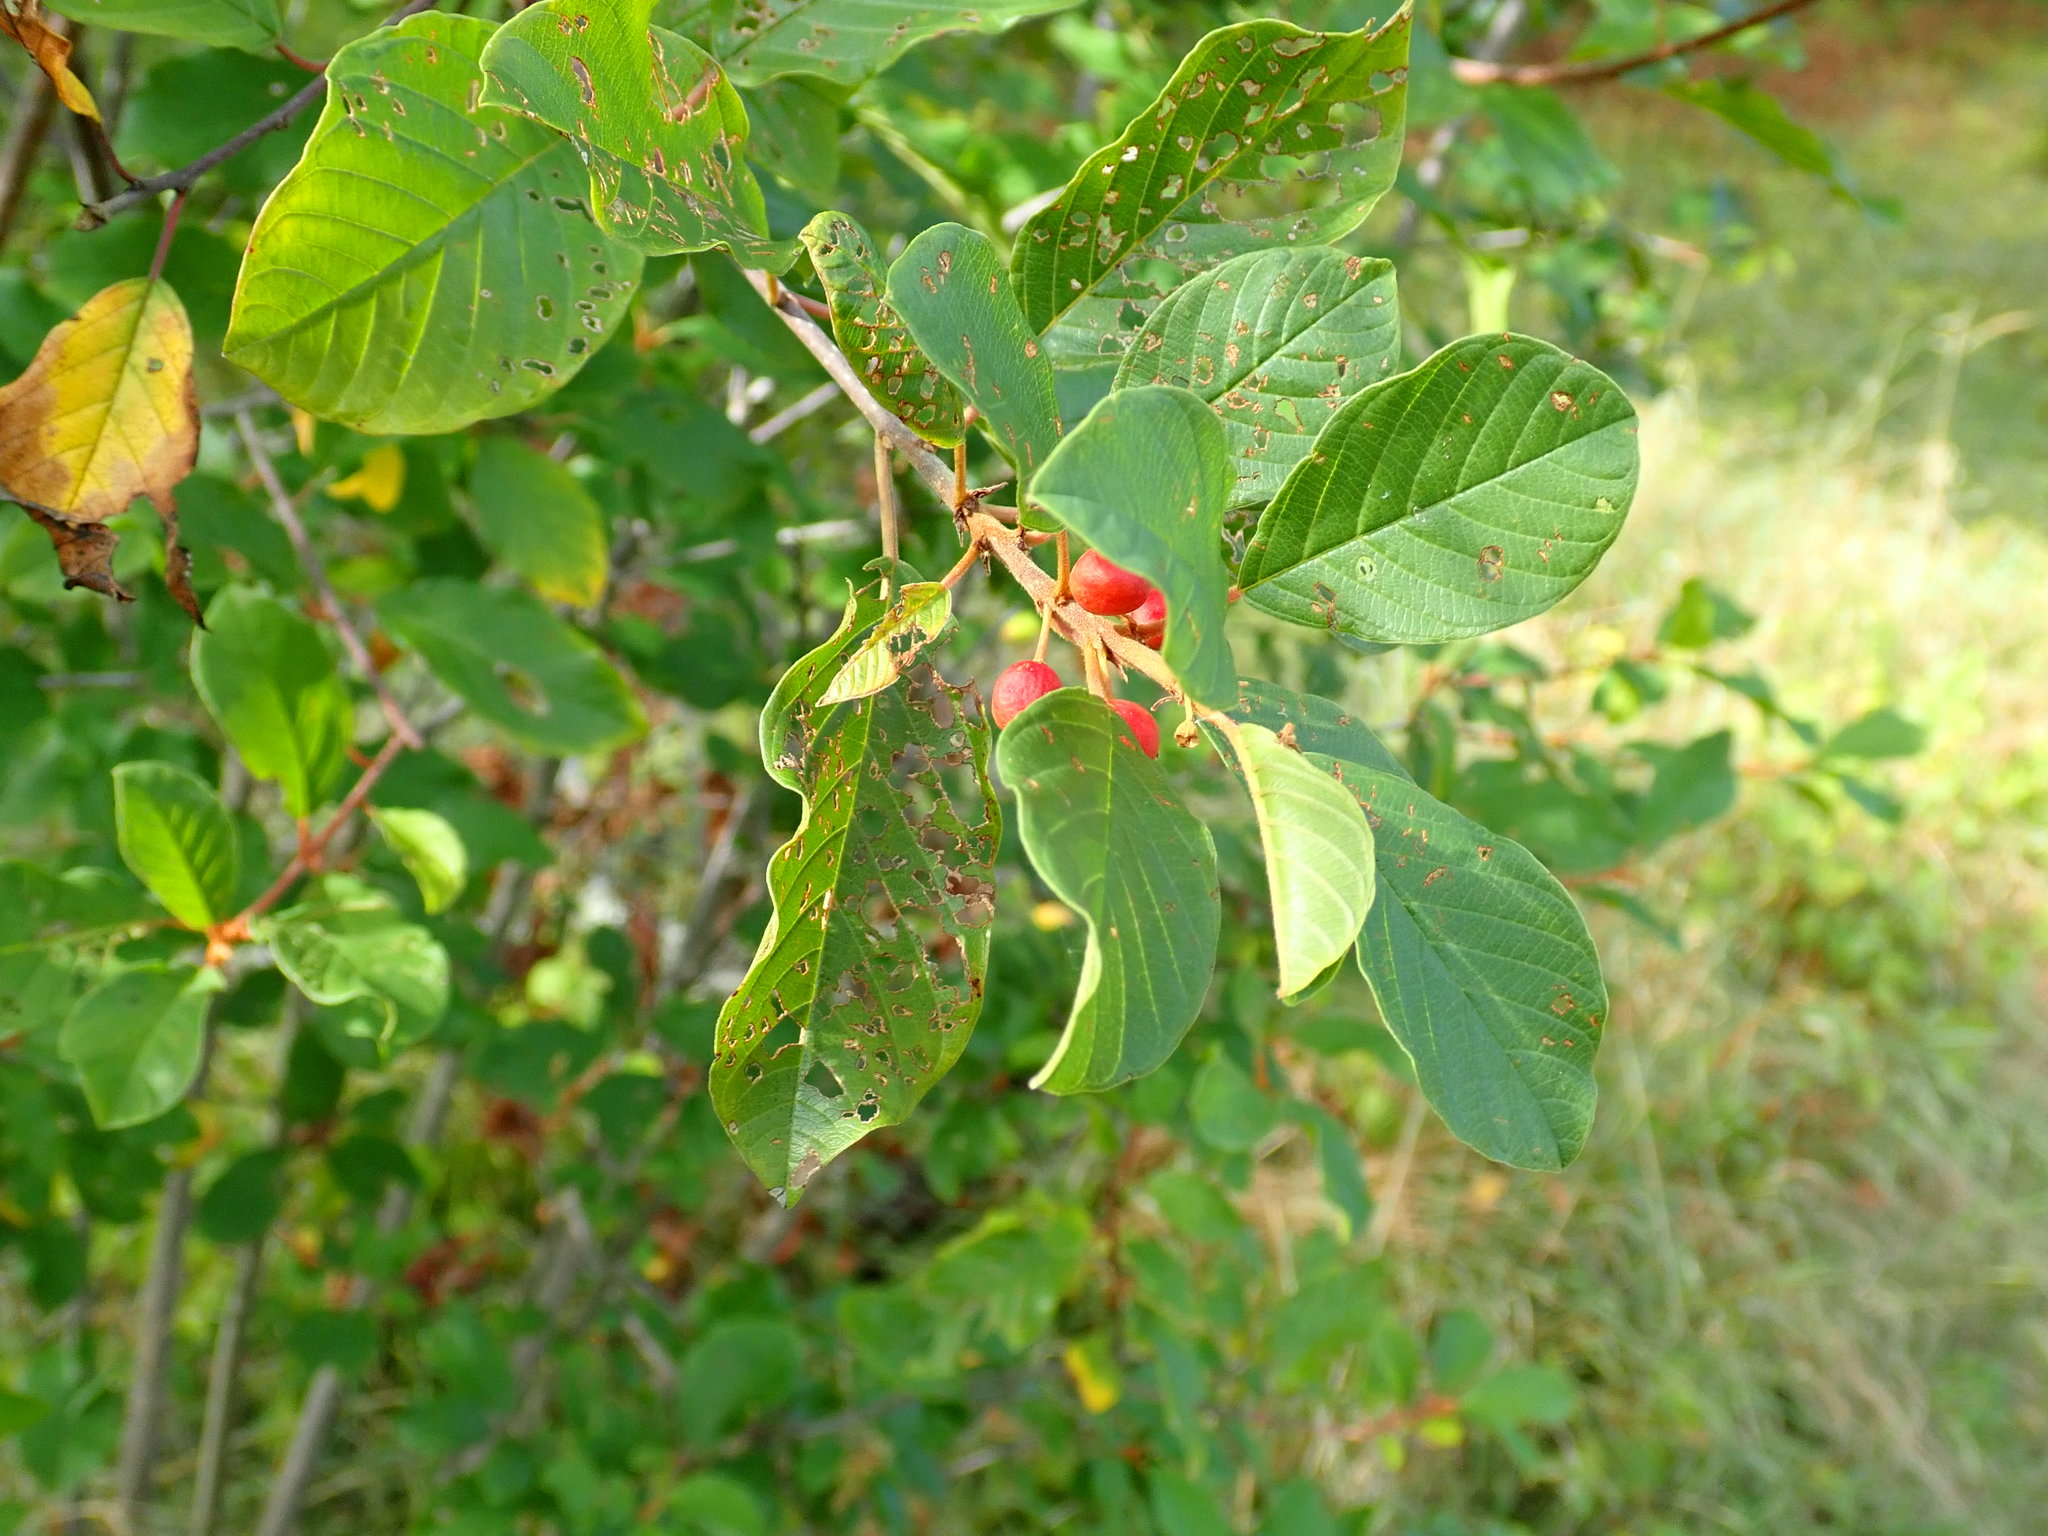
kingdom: Plantae
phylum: Tracheophyta
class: Magnoliopsida
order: Rosales
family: Rhamnaceae
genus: Frangula
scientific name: Frangula alnus
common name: Alder buckthorn
